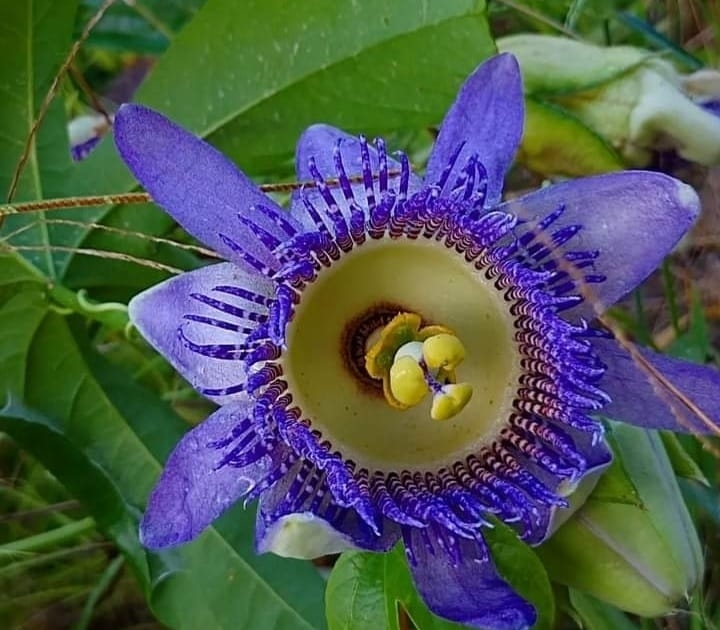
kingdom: Plantae
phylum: Tracheophyta
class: Magnoliopsida
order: Malpighiales
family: Passifloraceae
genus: Passiflora
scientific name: Passiflora serratodigitata
